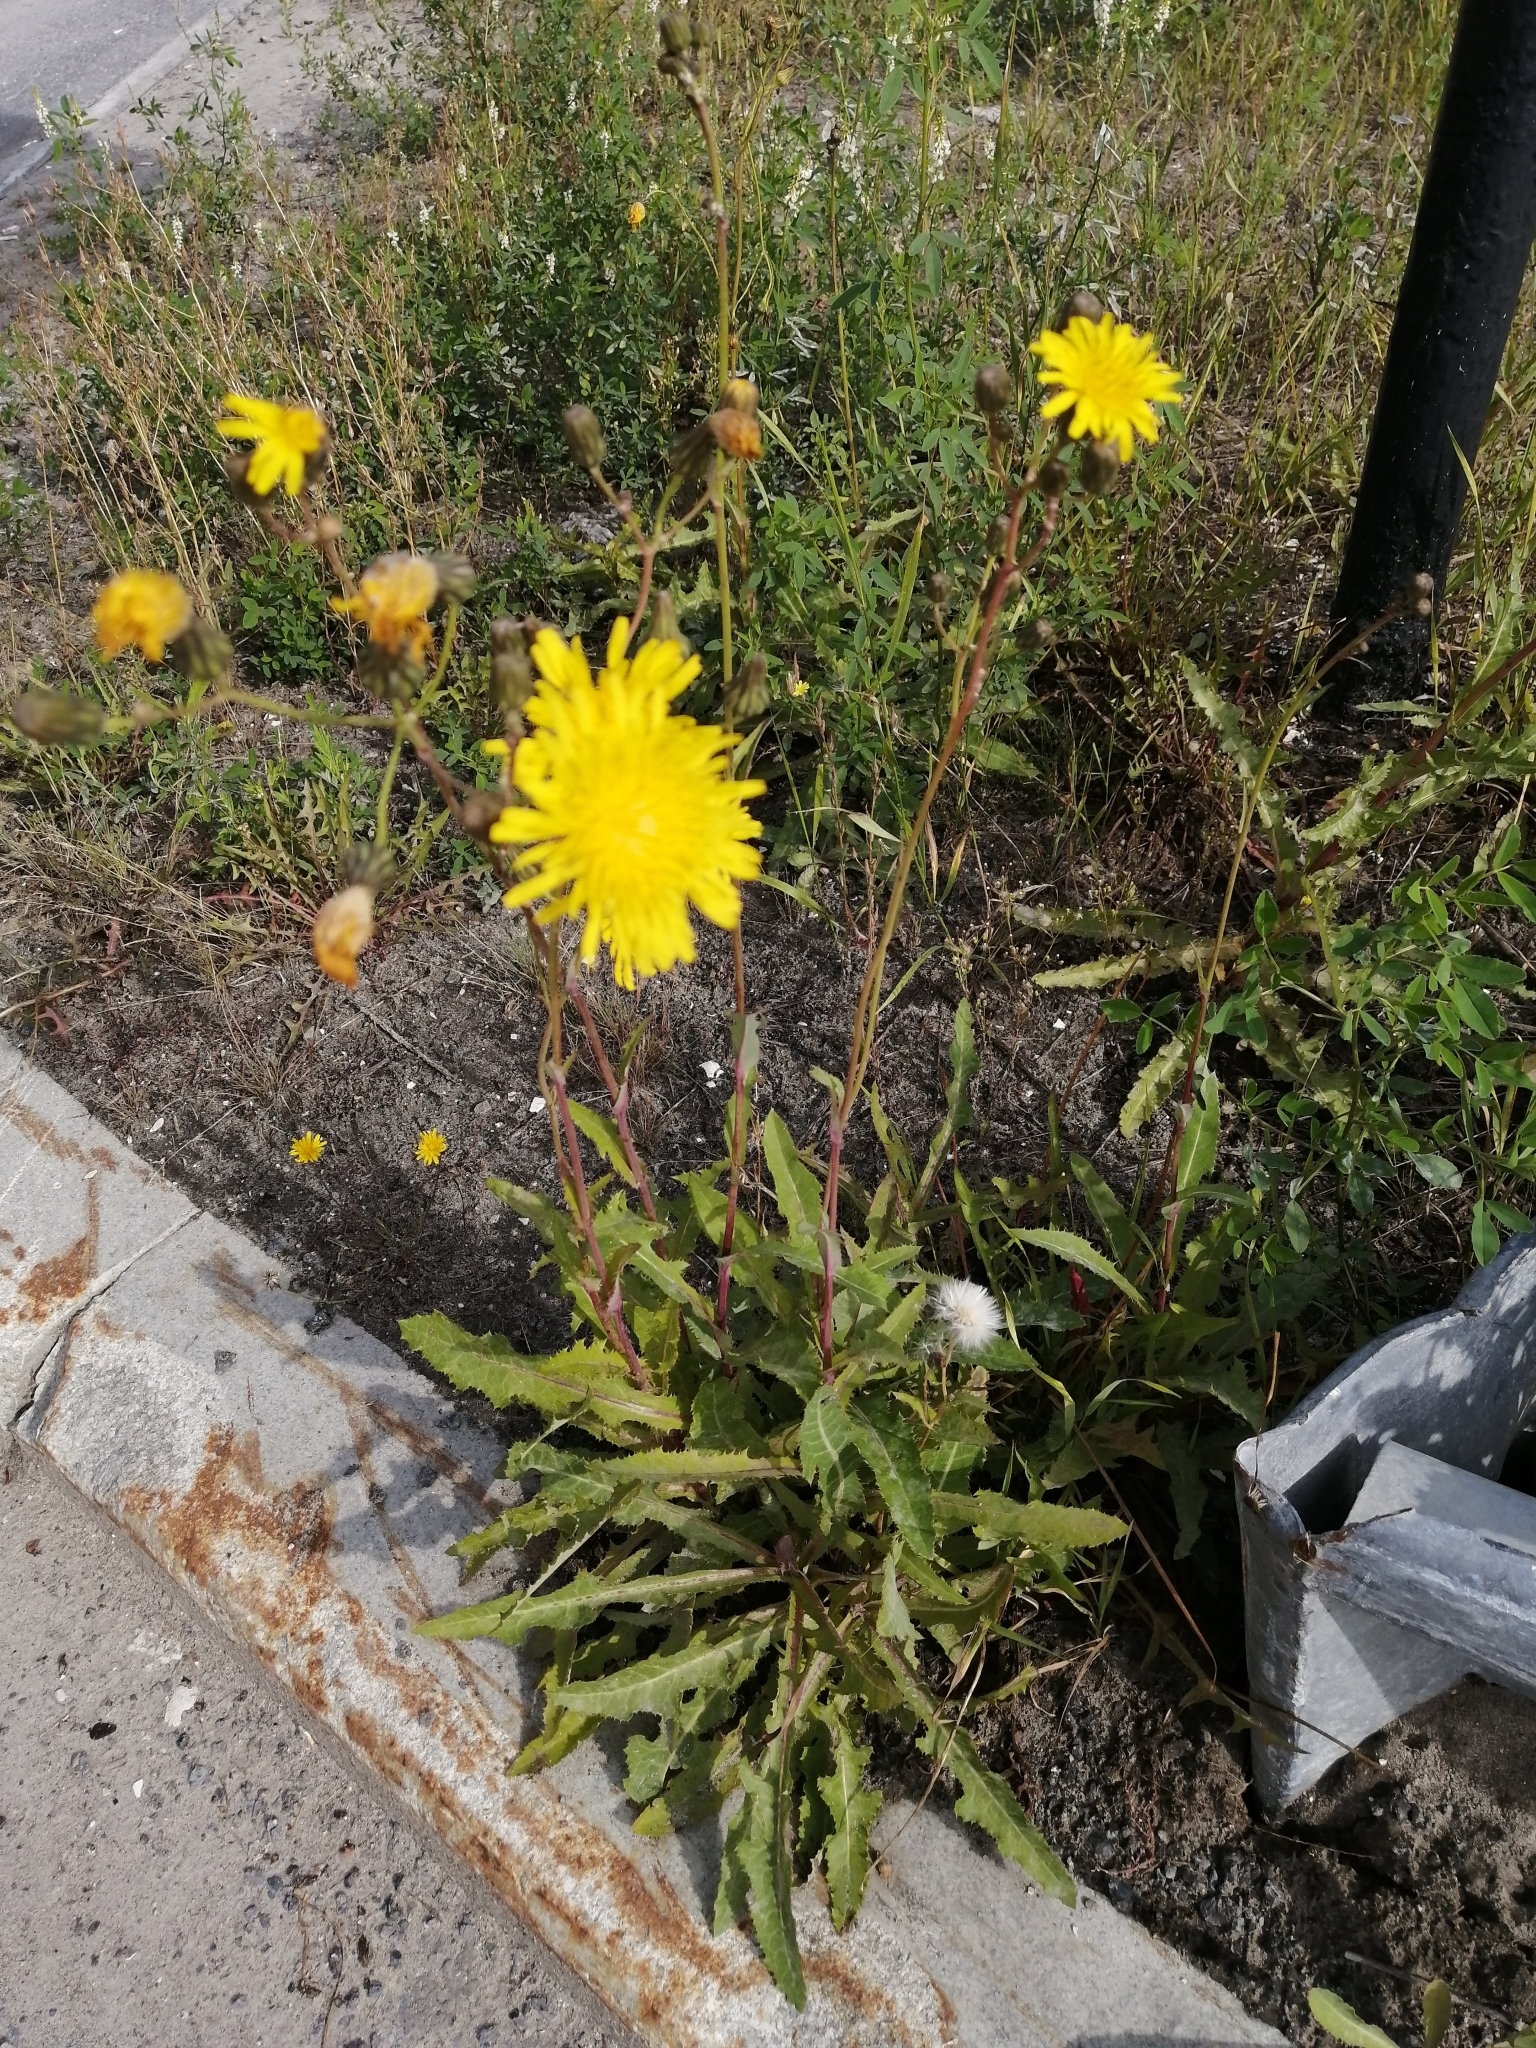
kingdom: Plantae
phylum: Tracheophyta
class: Magnoliopsida
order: Asterales
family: Asteraceae
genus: Sonchus
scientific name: Sonchus arvensis
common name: Perennial sow-thistle
